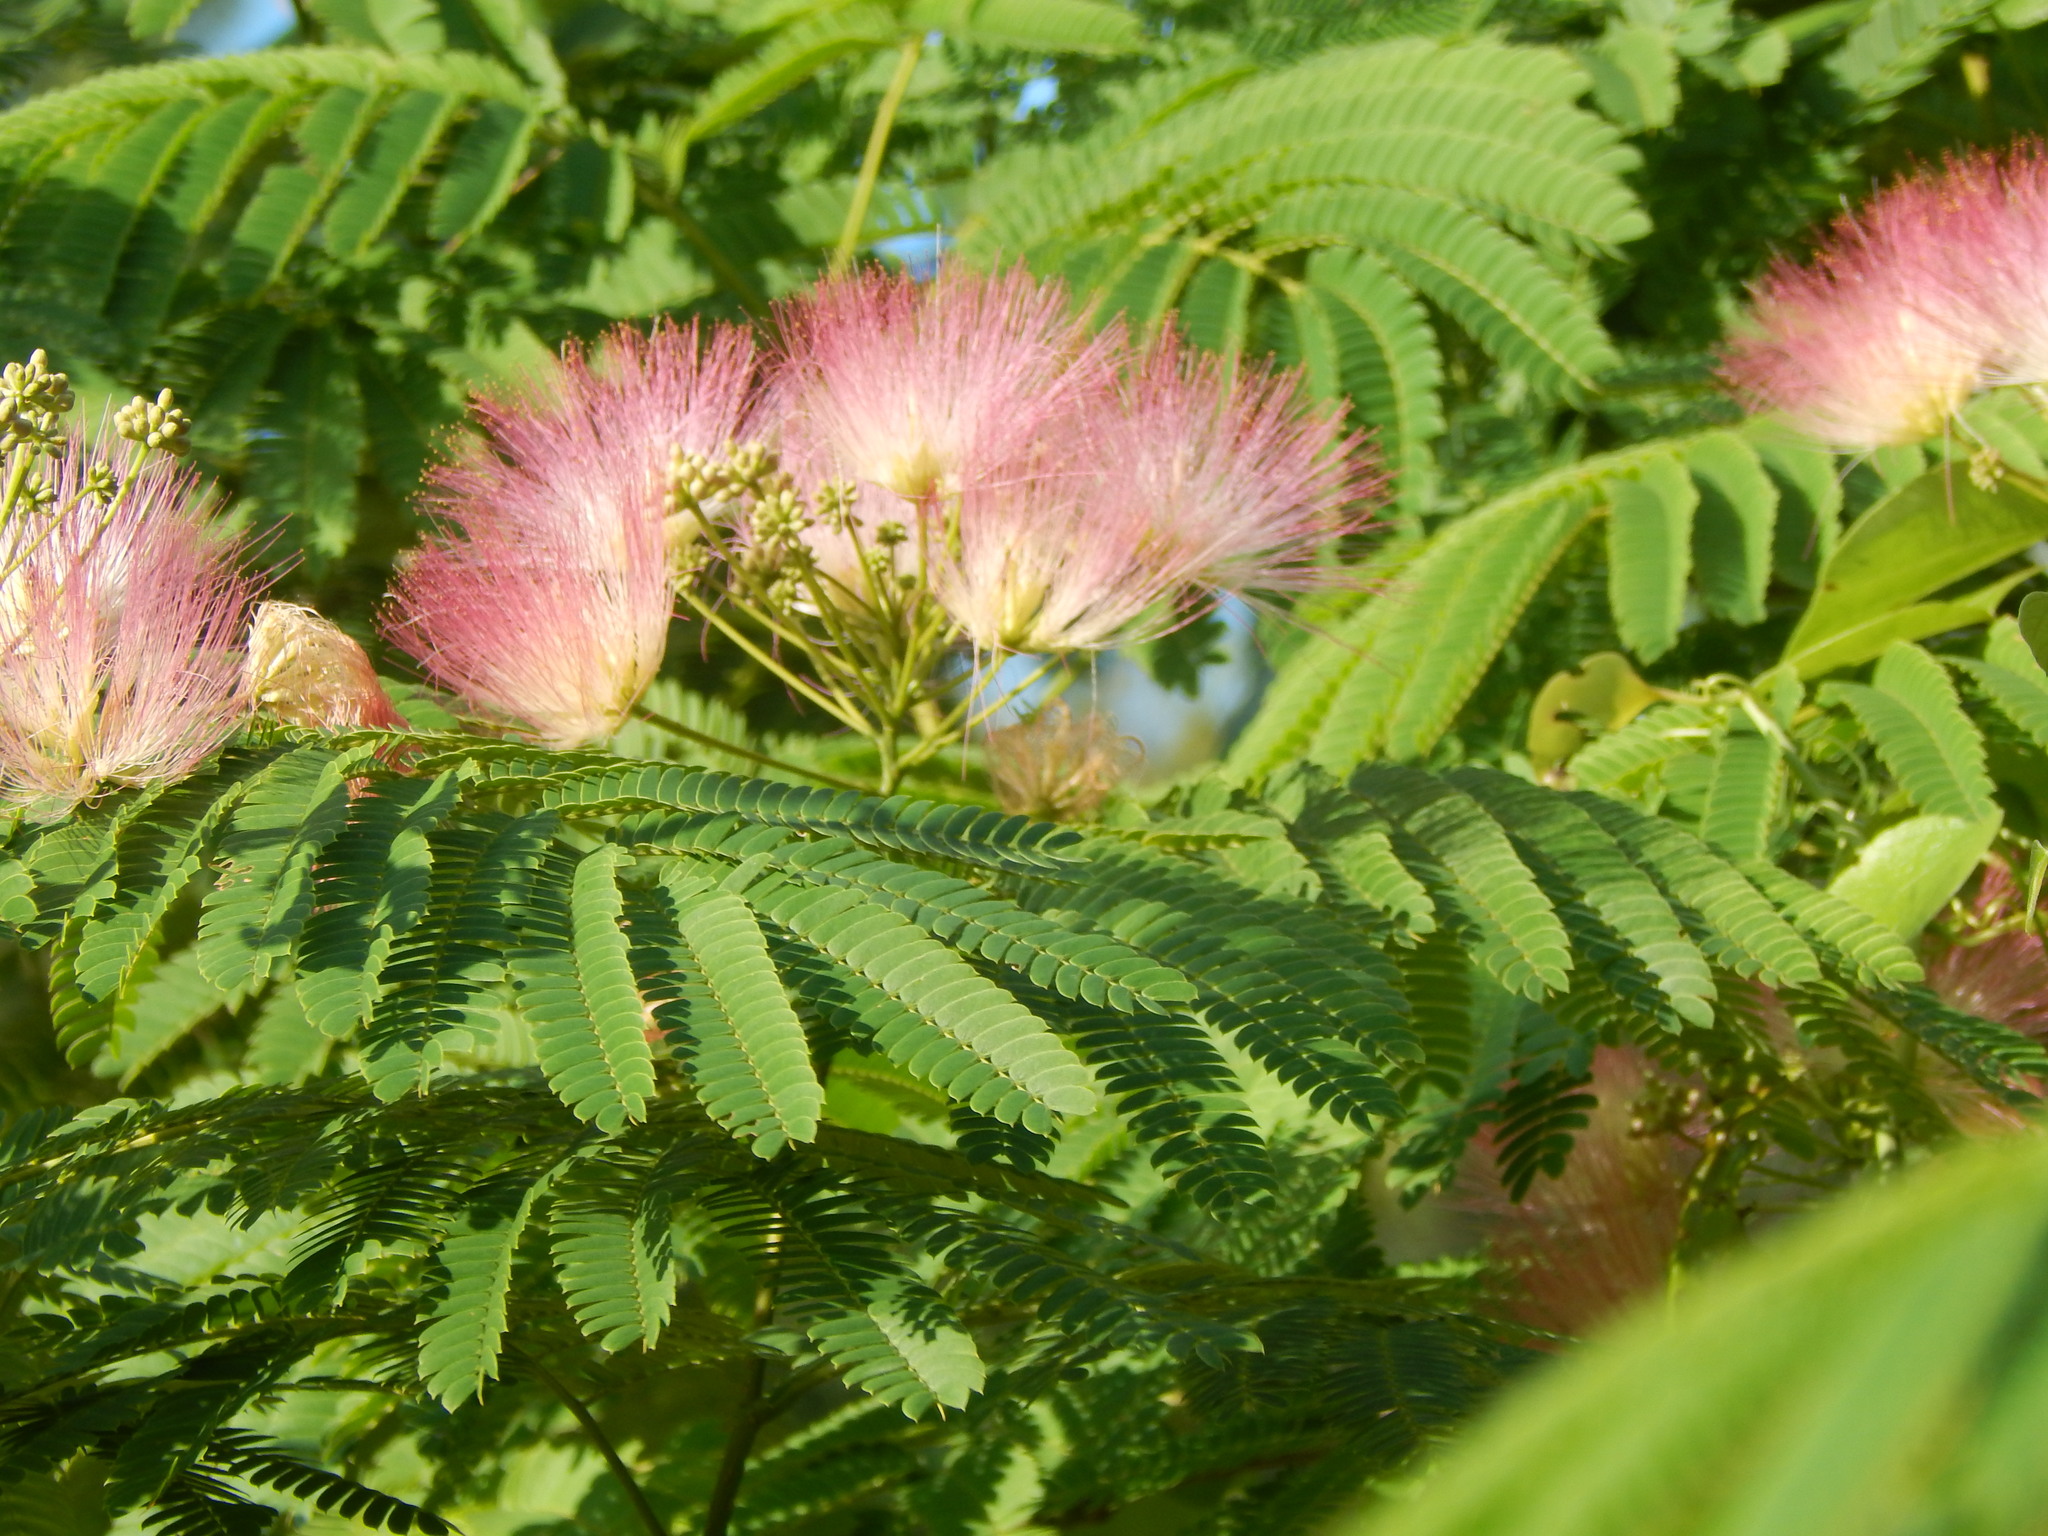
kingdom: Plantae
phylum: Tracheophyta
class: Magnoliopsida
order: Fabales
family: Fabaceae
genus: Albizia
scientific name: Albizia julibrissin
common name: Silktree
